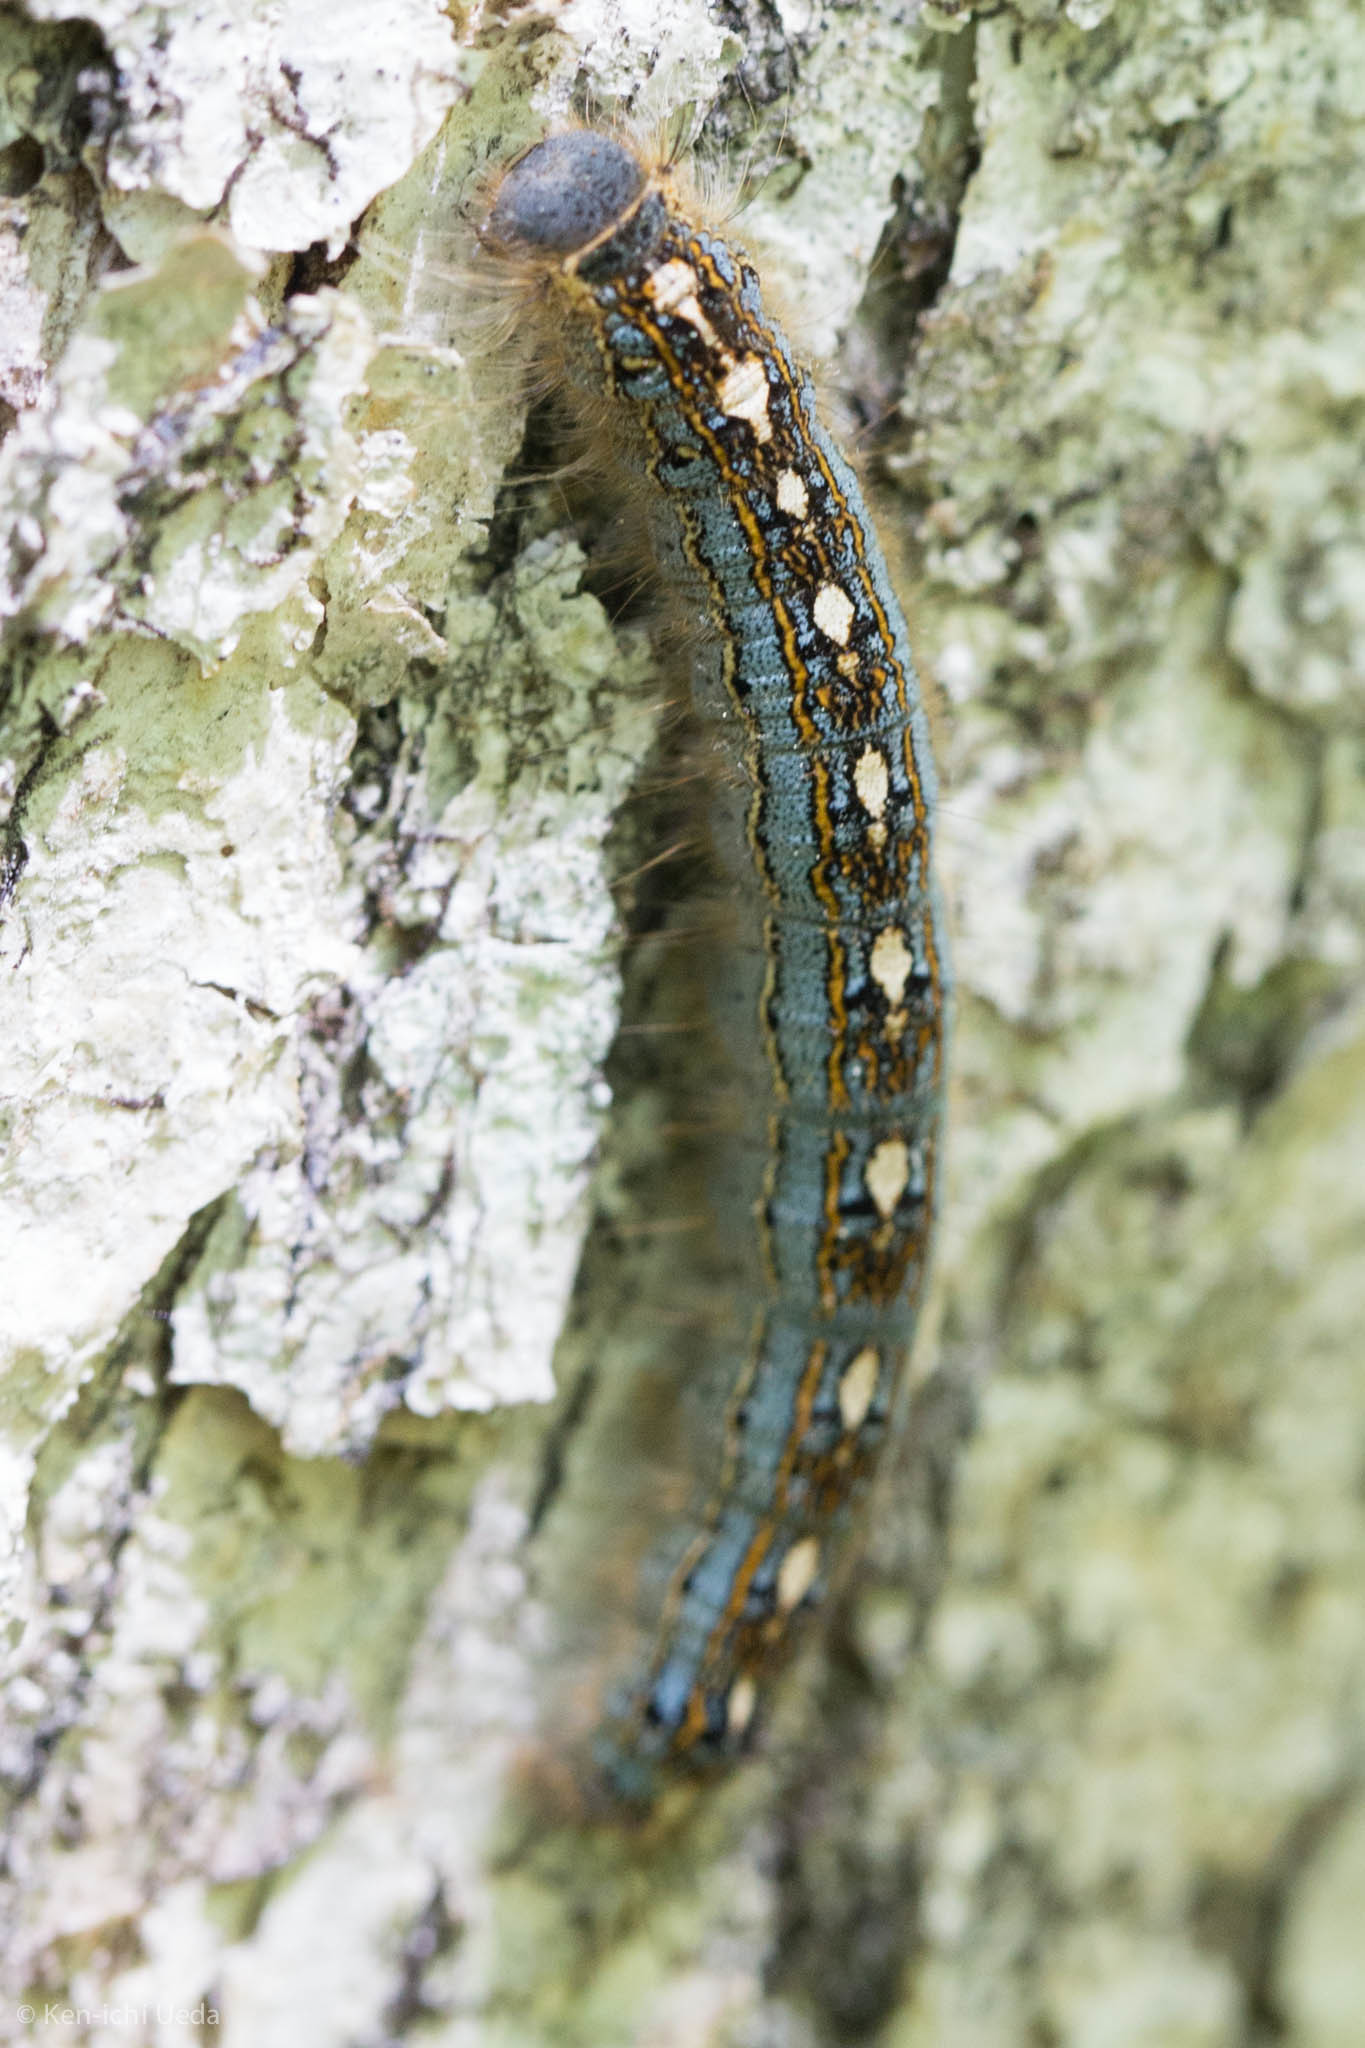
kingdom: Animalia
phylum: Arthropoda
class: Insecta
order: Lepidoptera
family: Lasiocampidae
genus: Malacosoma
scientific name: Malacosoma disstria
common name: Forest tent caterpillar
